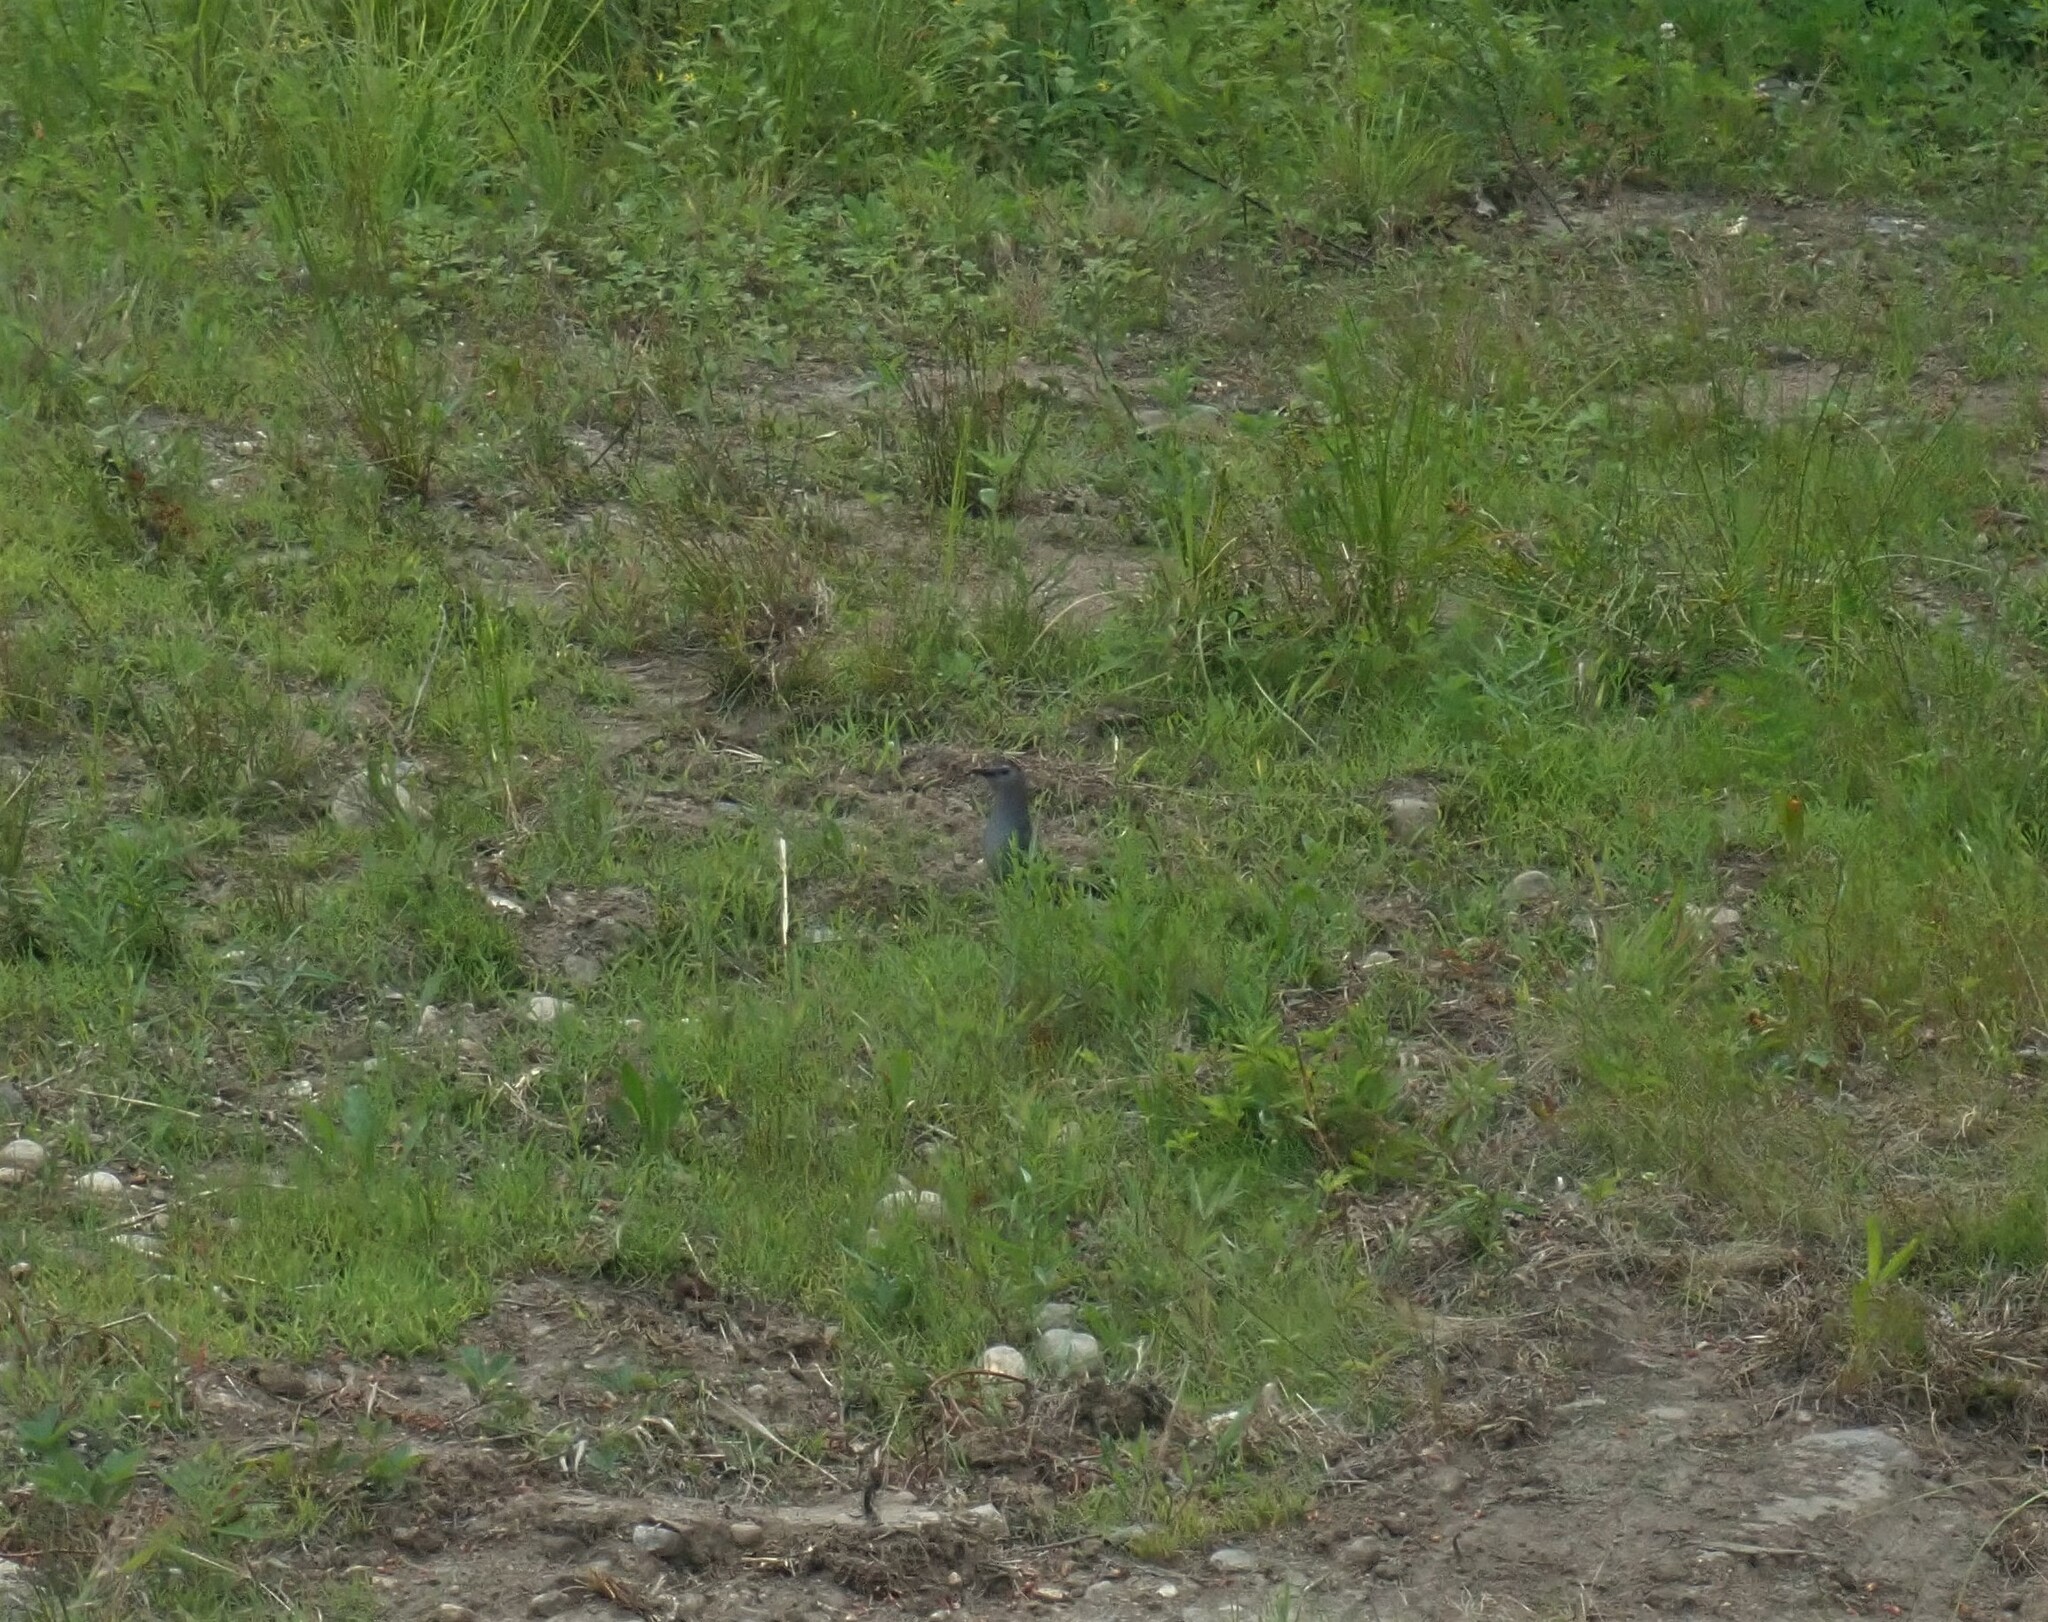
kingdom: Animalia
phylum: Chordata
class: Aves
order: Passeriformes
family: Mimidae
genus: Dumetella
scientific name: Dumetella carolinensis
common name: Gray catbird
